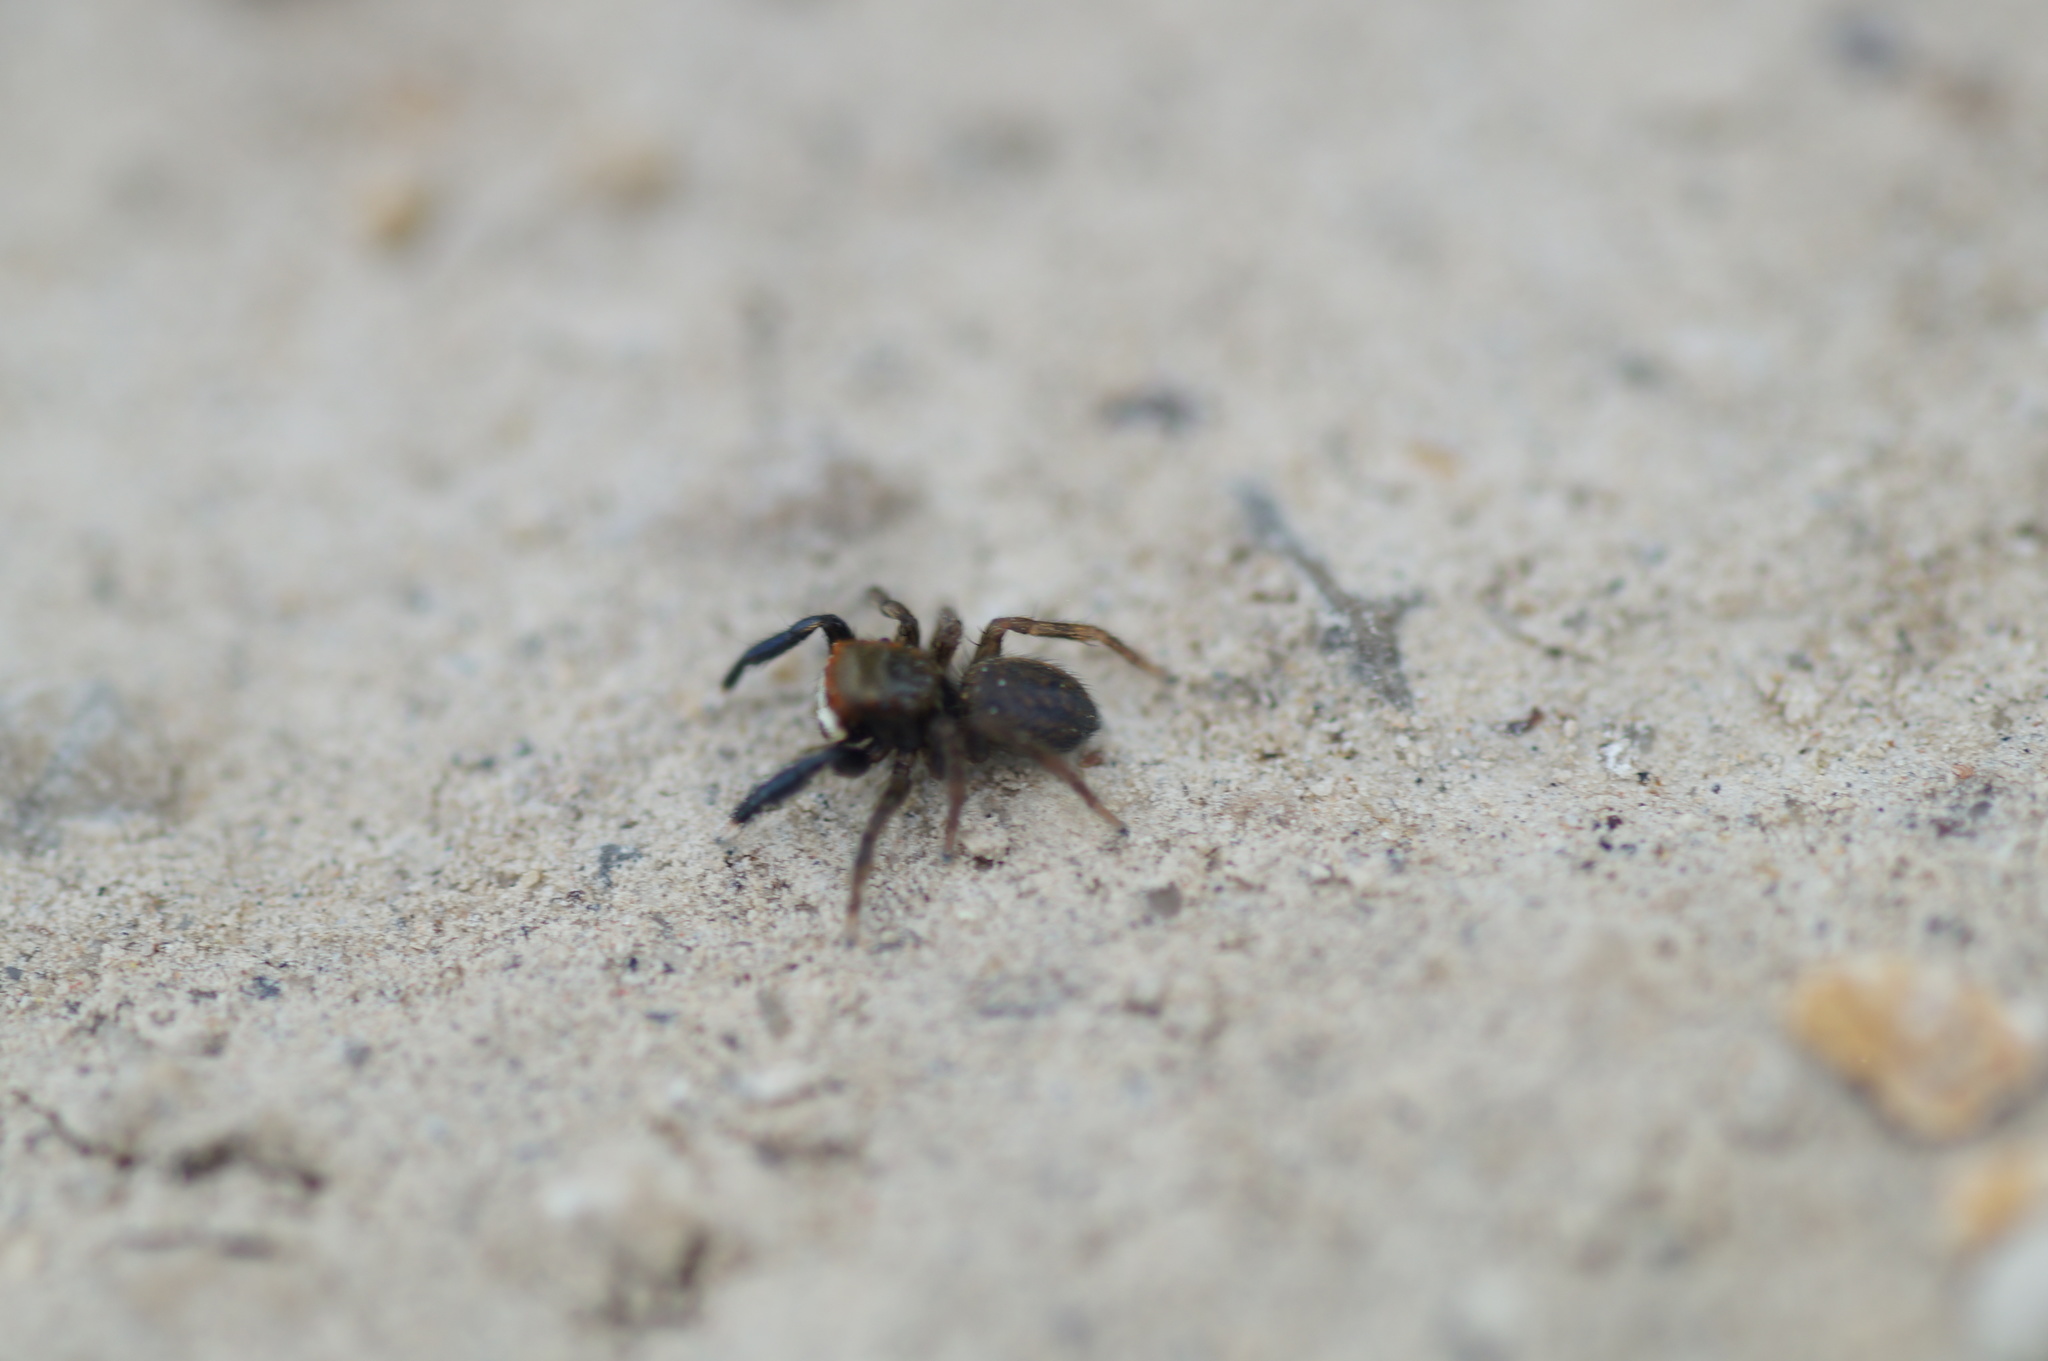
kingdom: Animalia
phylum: Arthropoda
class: Arachnida
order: Araneae
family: Salticidae
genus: Euophrys
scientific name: Euophrys frontalis
